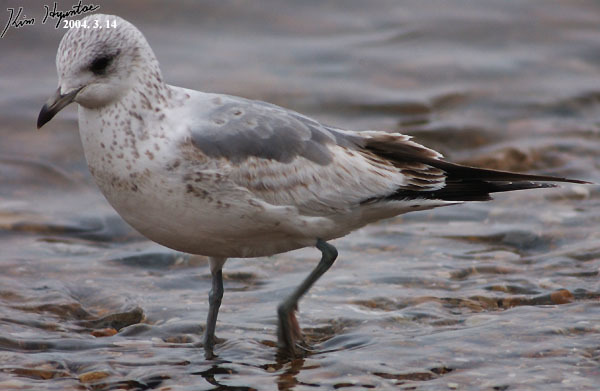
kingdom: Animalia
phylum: Chordata
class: Aves
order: Charadriiformes
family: Laridae
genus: Larus
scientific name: Larus canus
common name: Mew gull
